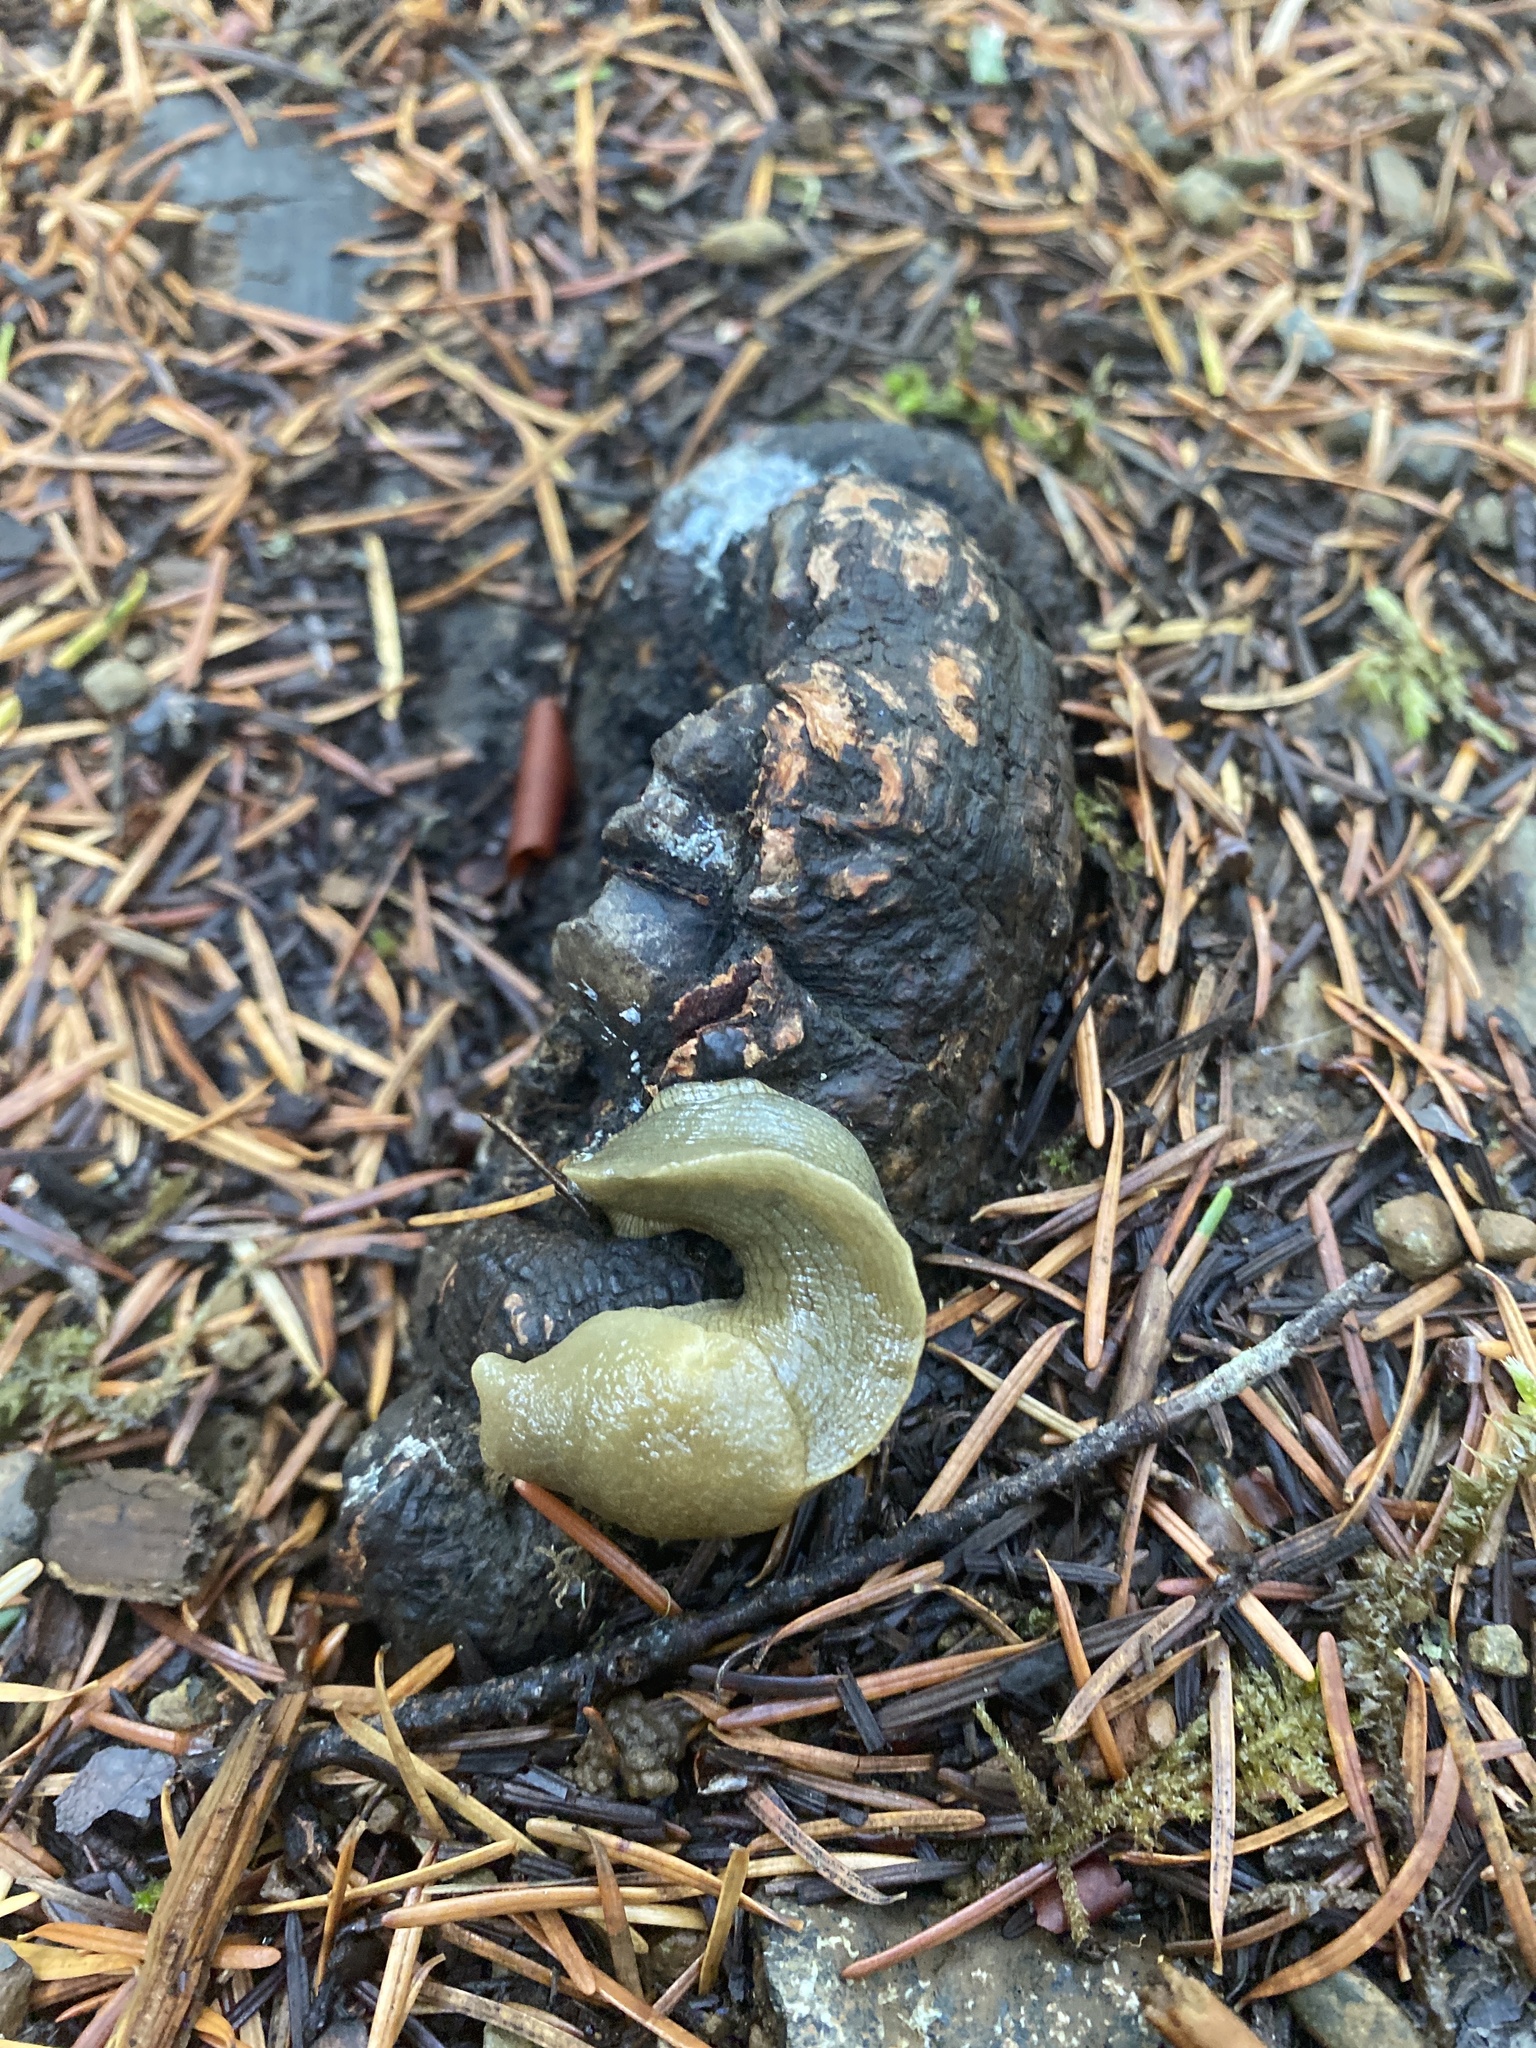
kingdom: Animalia
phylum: Mollusca
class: Gastropoda
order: Stylommatophora
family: Ariolimacidae
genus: Ariolimax
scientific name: Ariolimax columbianus
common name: Pacific banana slug
